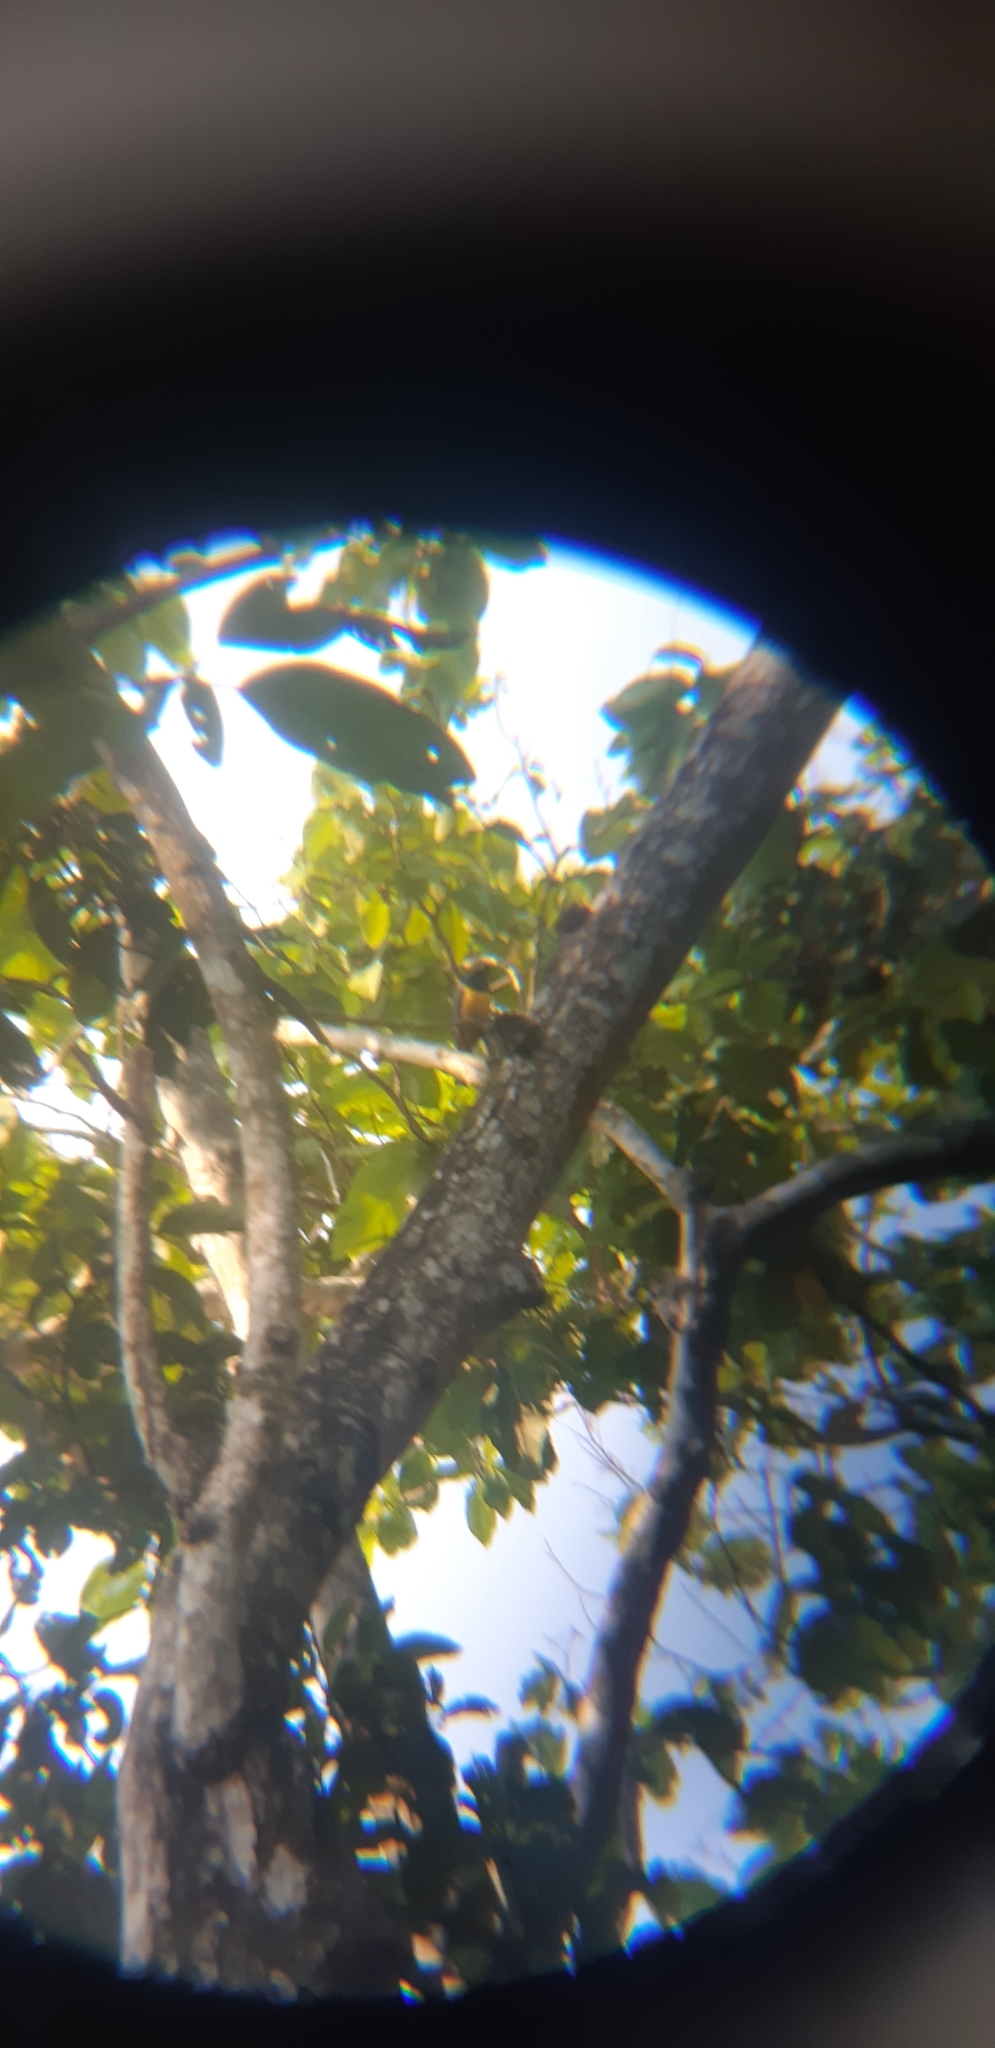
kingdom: Animalia
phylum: Chordata
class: Aves
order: Trogoniformes
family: Trogonidae
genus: Trogon
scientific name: Trogon caligatus
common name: Gartered trogon
